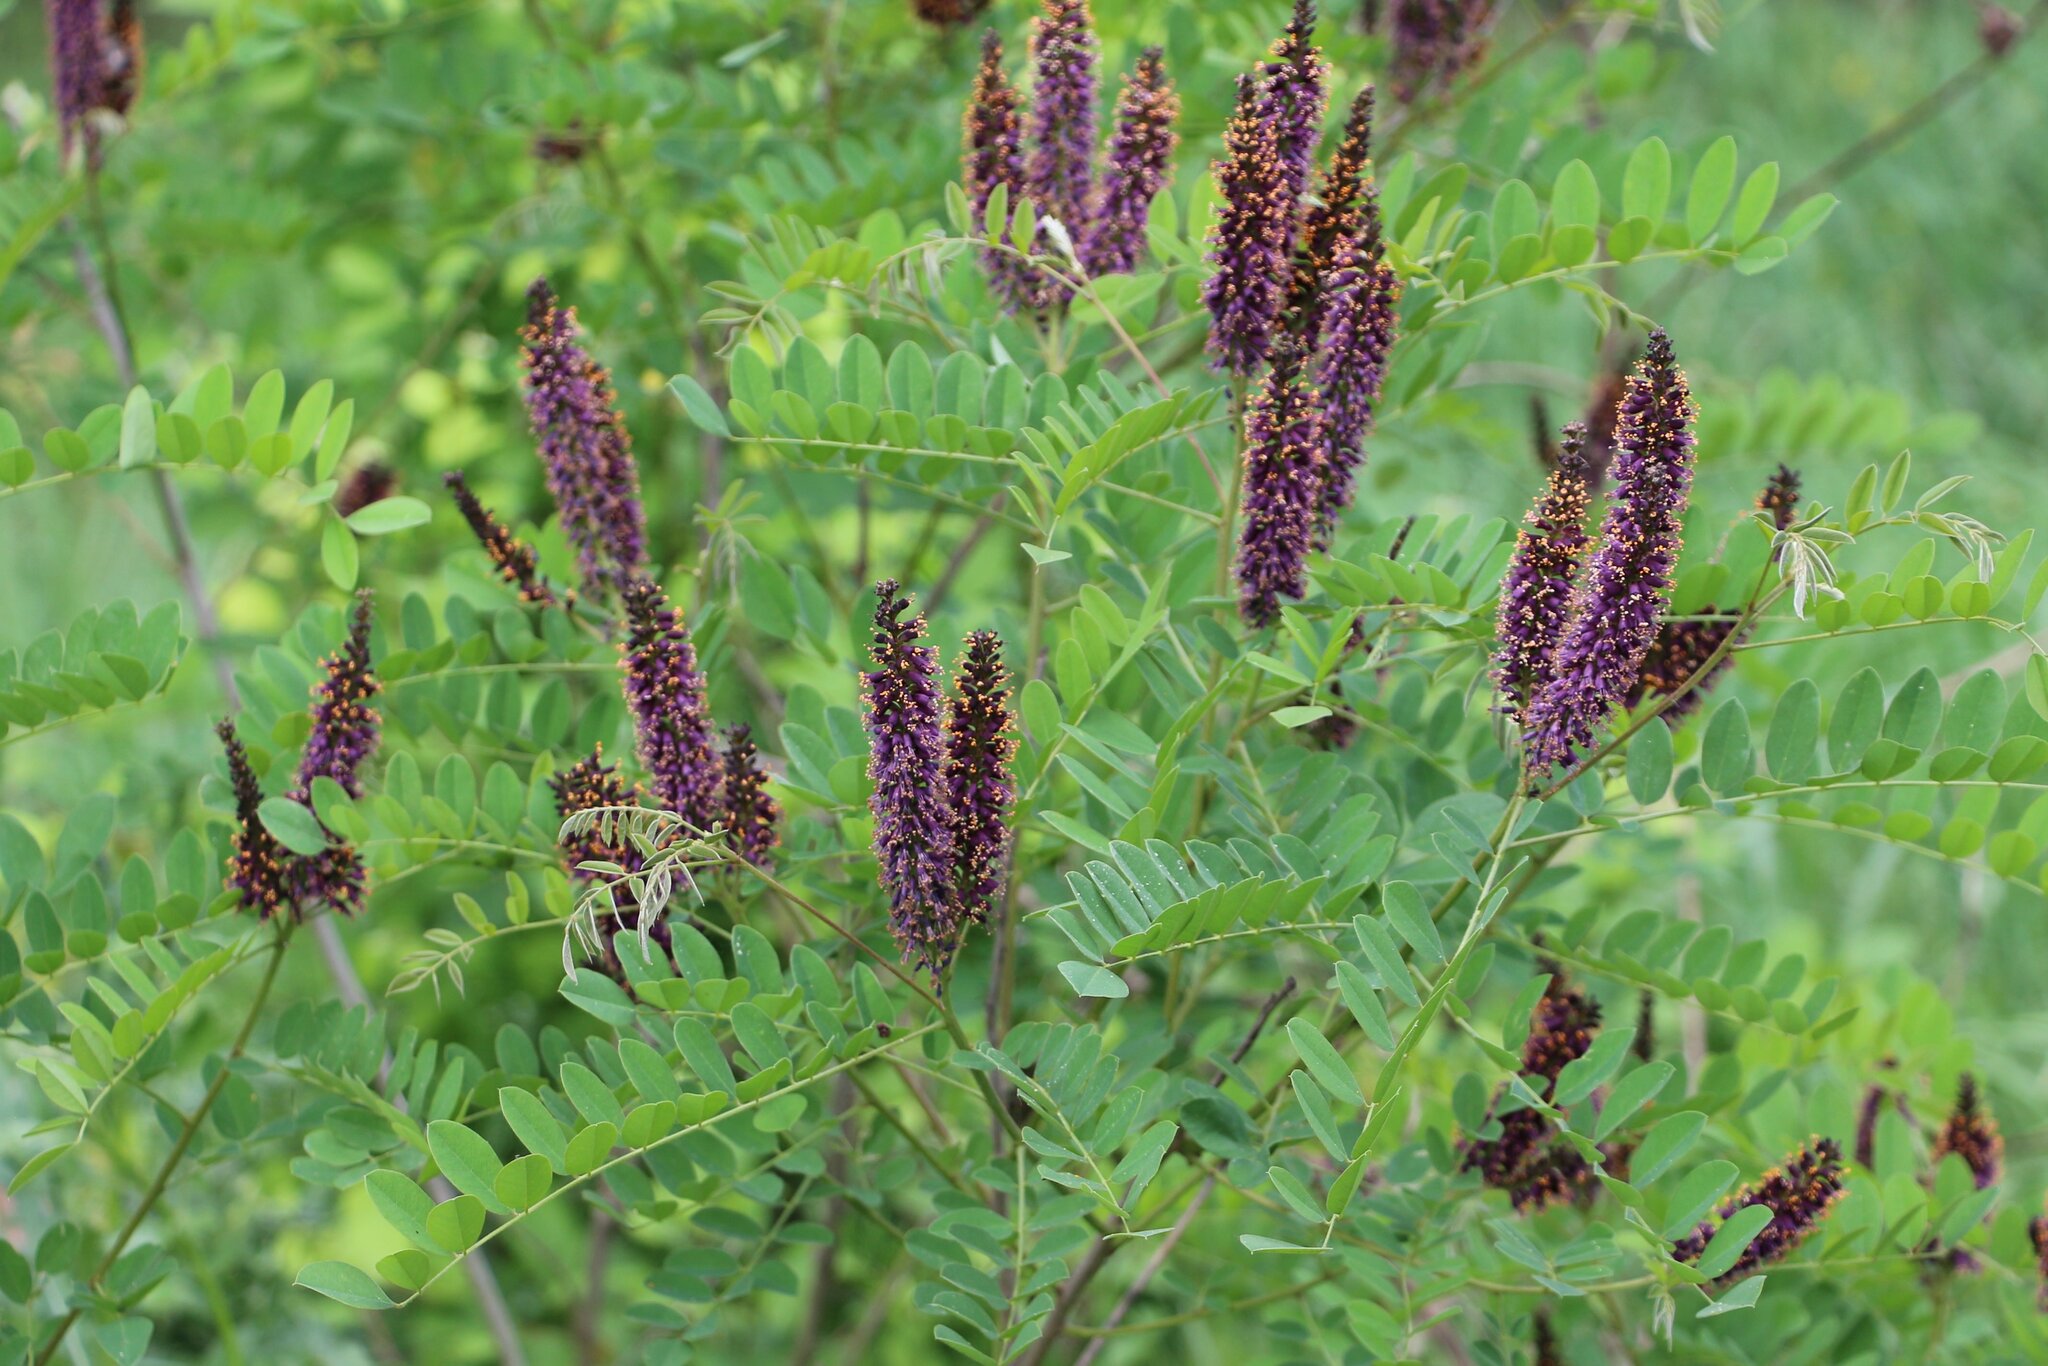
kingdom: Plantae
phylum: Tracheophyta
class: Magnoliopsida
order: Fabales
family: Fabaceae
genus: Amorpha
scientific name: Amorpha fruticosa
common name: False indigo
